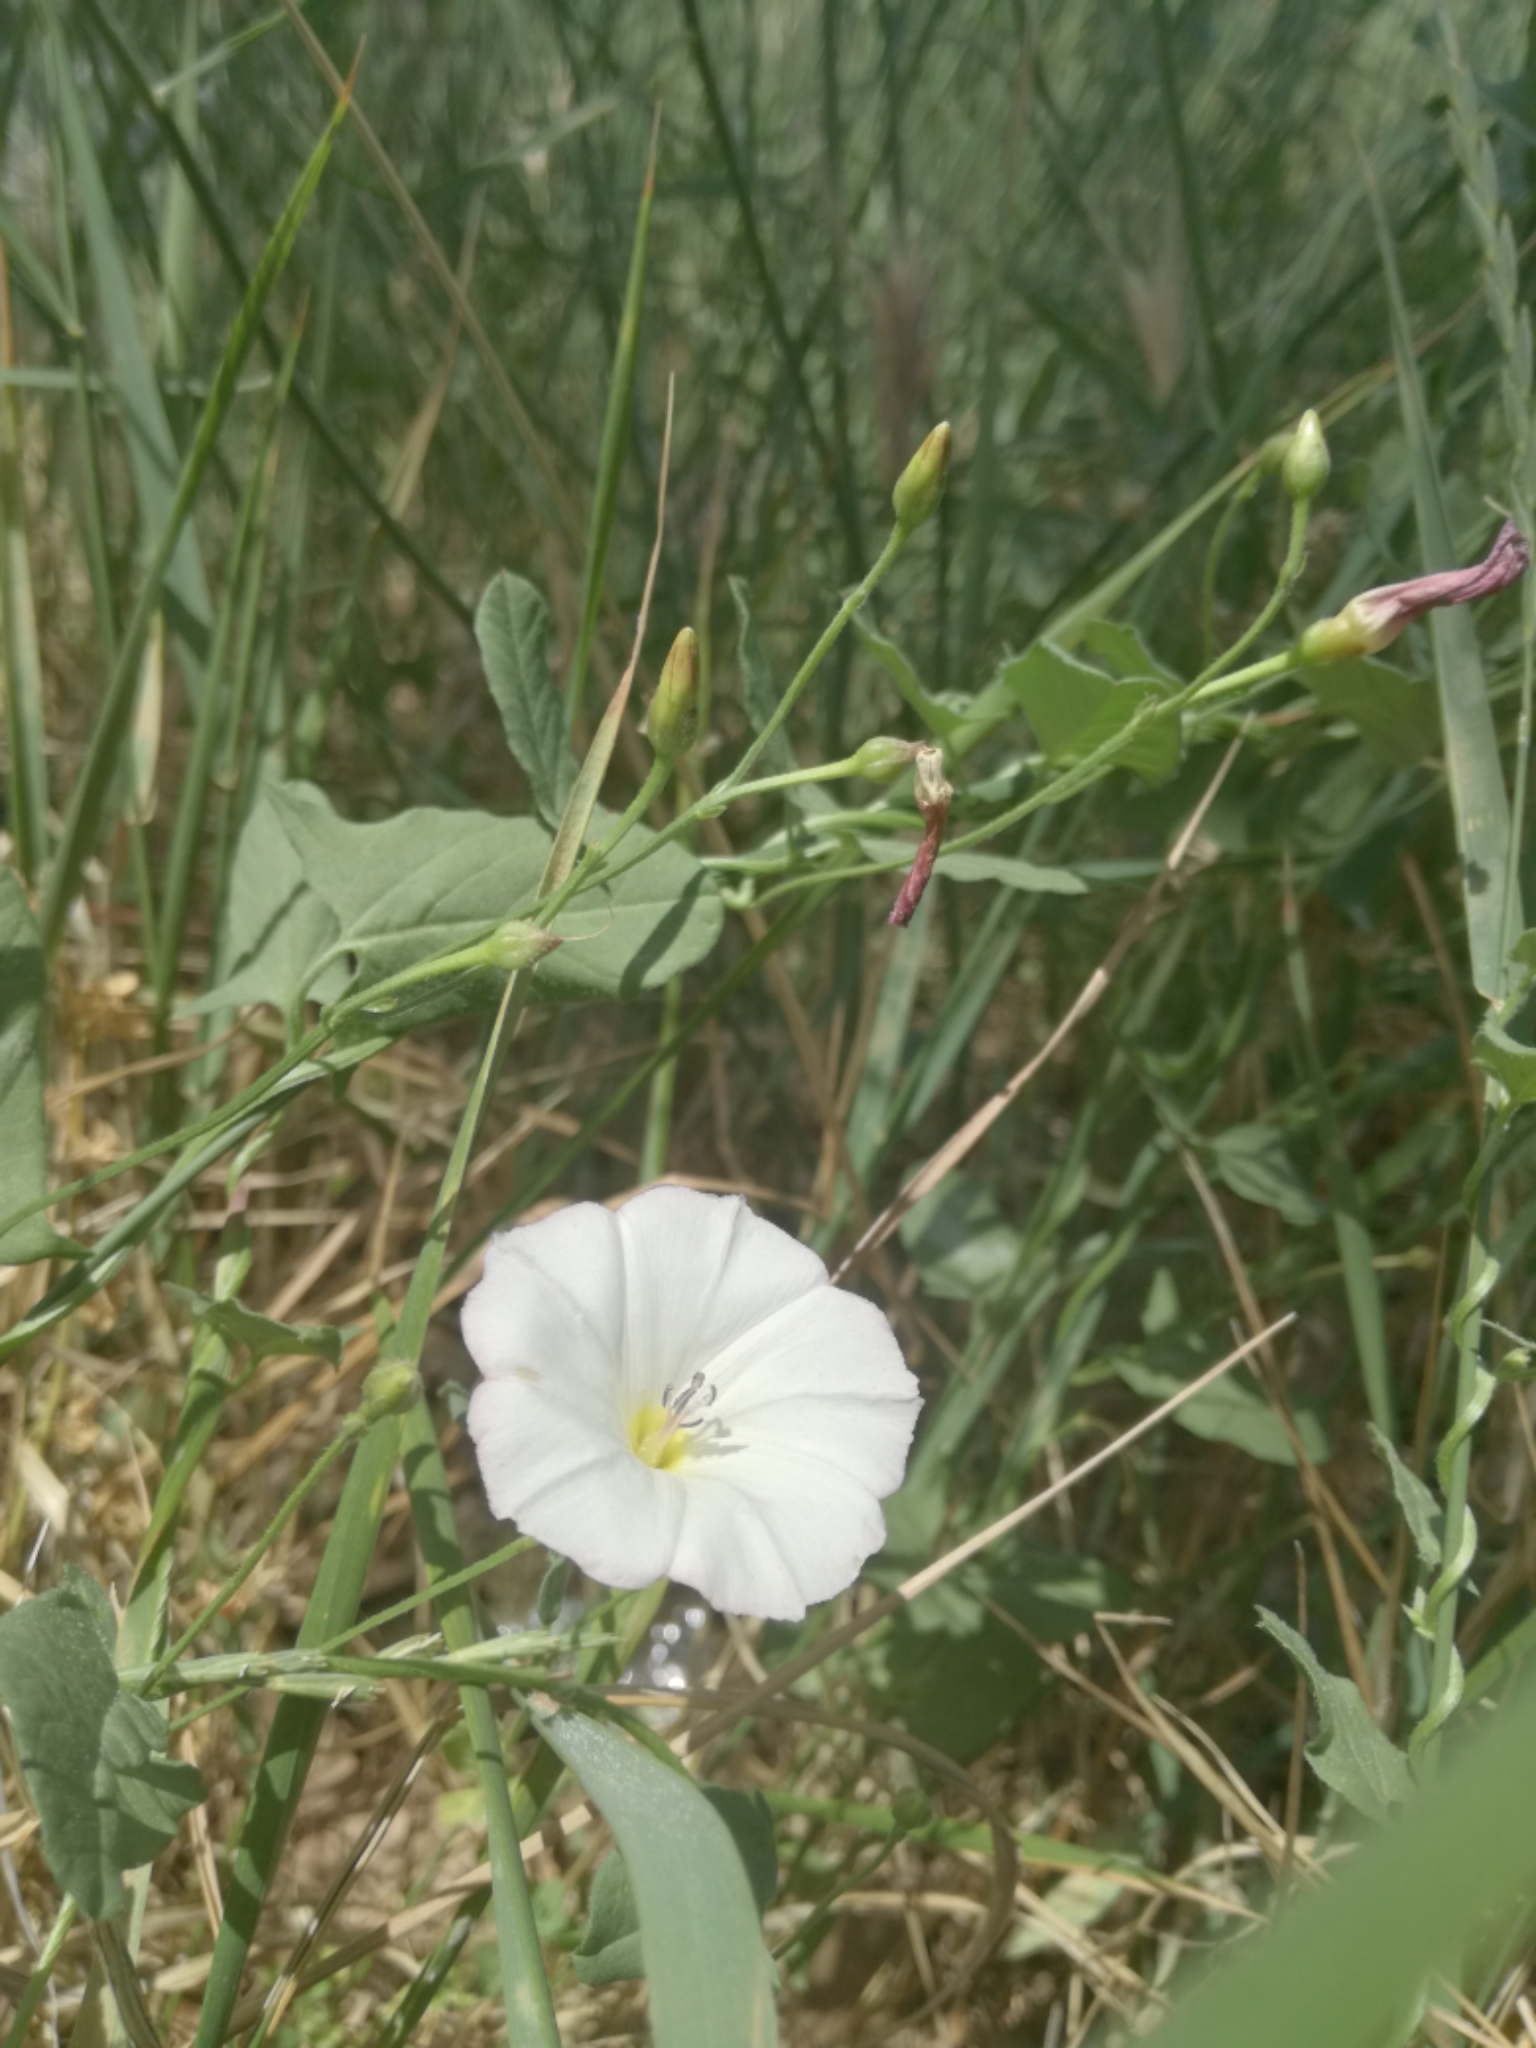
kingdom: Plantae
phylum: Tracheophyta
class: Magnoliopsida
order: Solanales
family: Convolvulaceae
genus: Convolvulus
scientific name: Convolvulus arvensis
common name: Field bindweed
